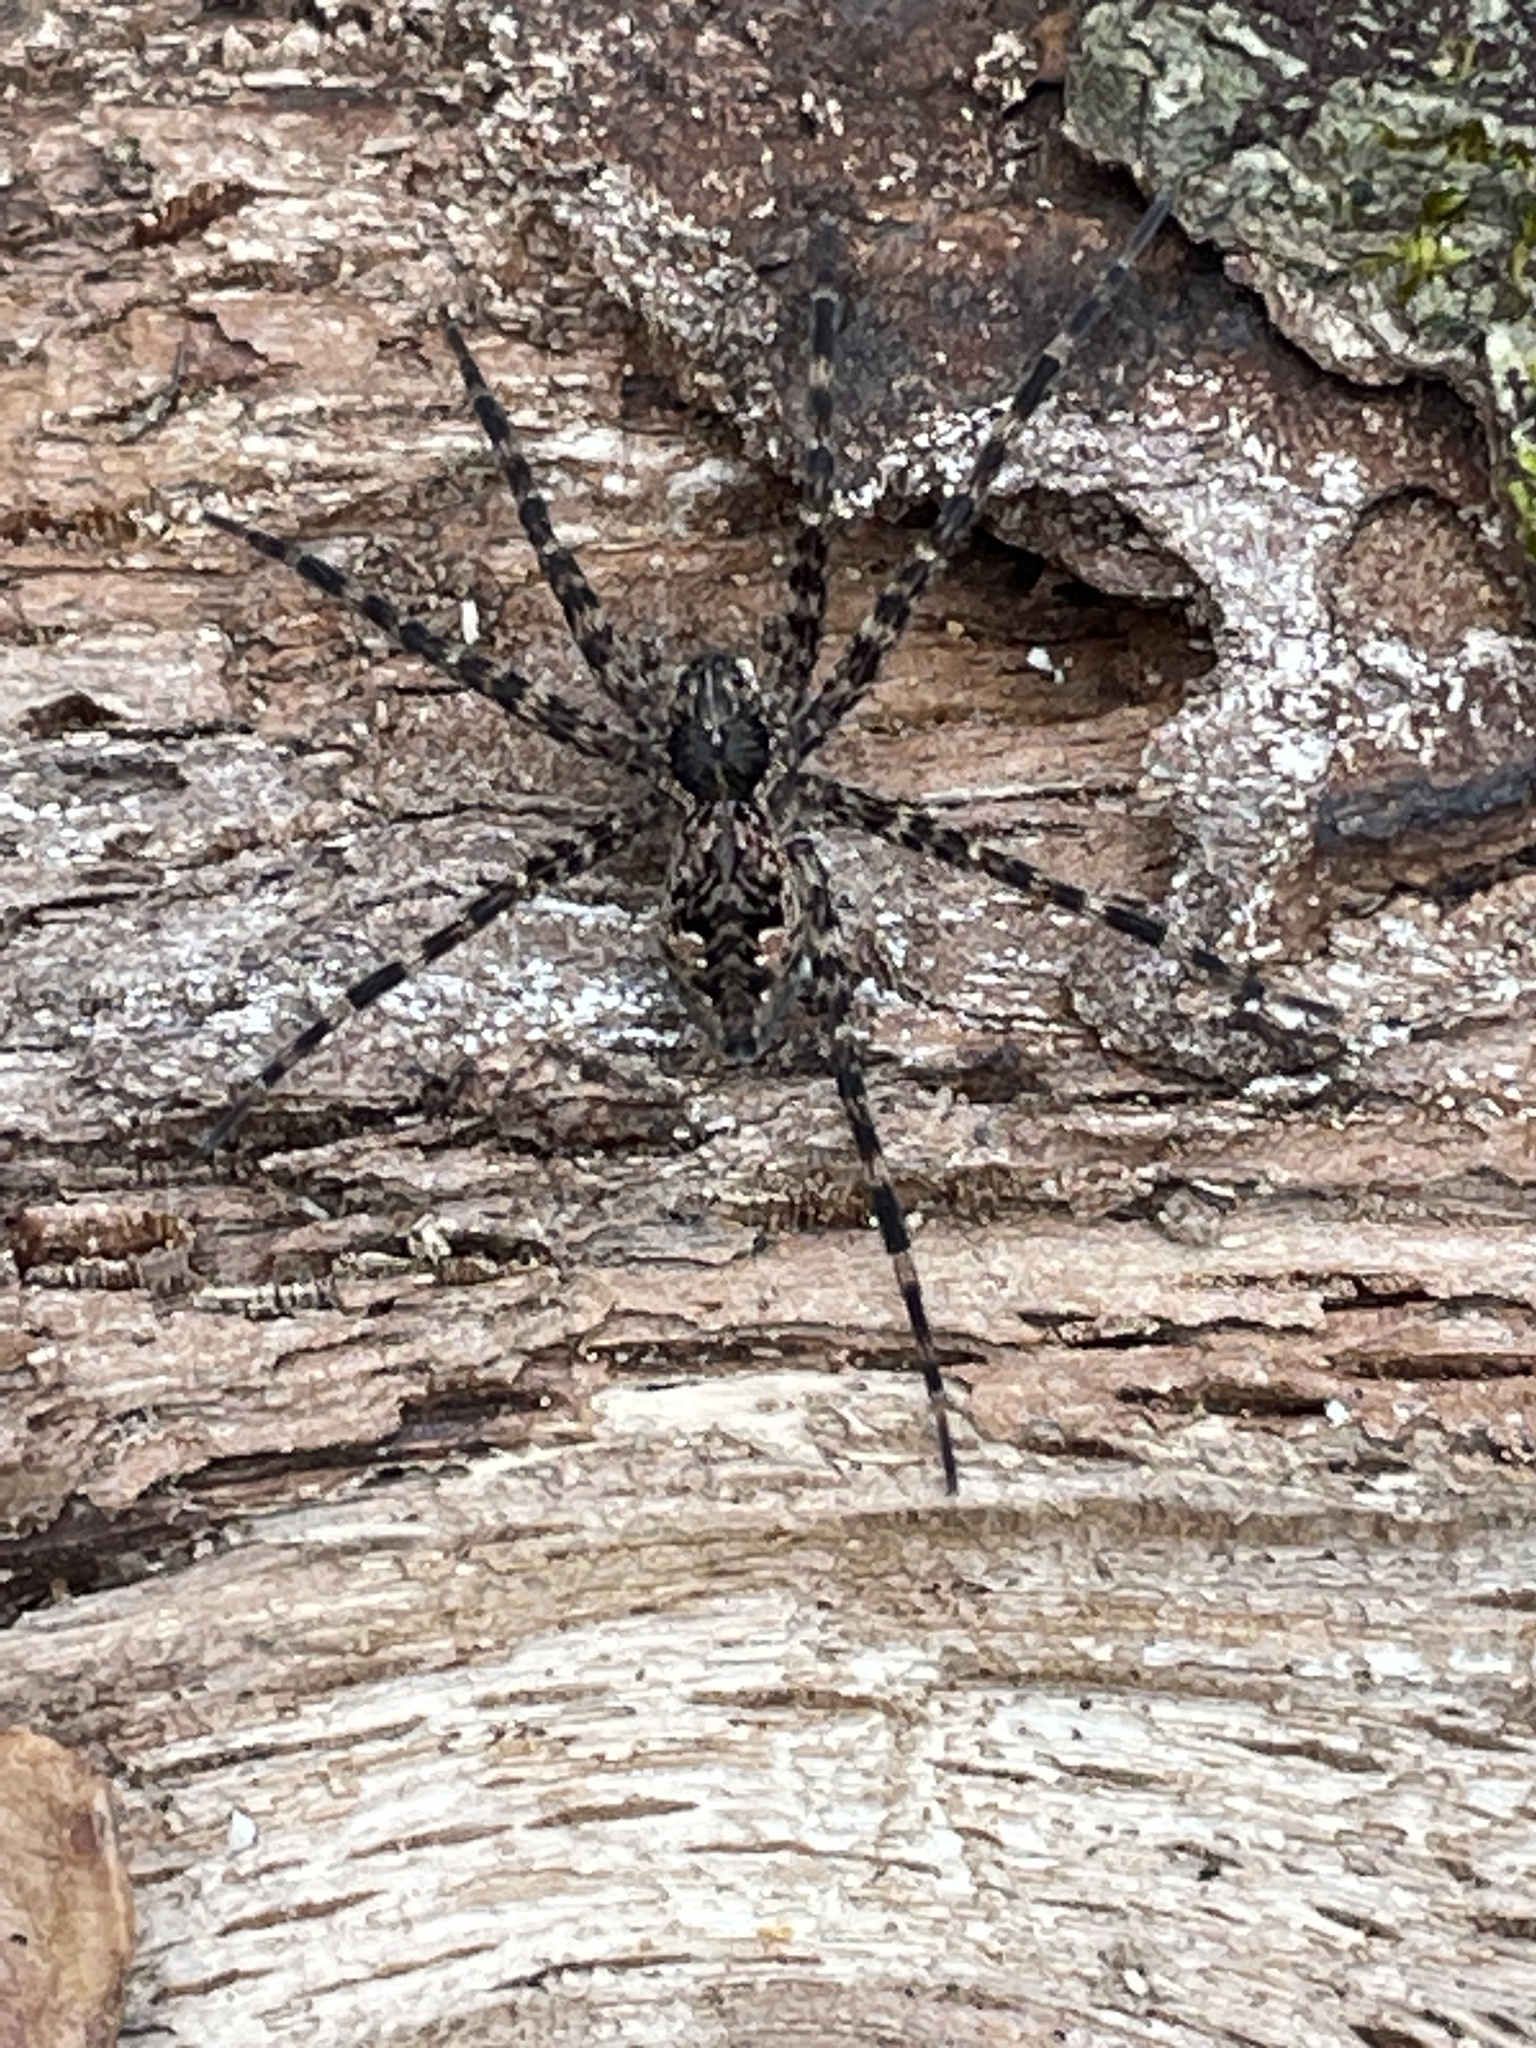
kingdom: Animalia
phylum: Arthropoda
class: Arachnida
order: Araneae
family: Pisauridae
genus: Dolomedes
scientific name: Dolomedes tenebrosus
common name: Dark fishing spider
